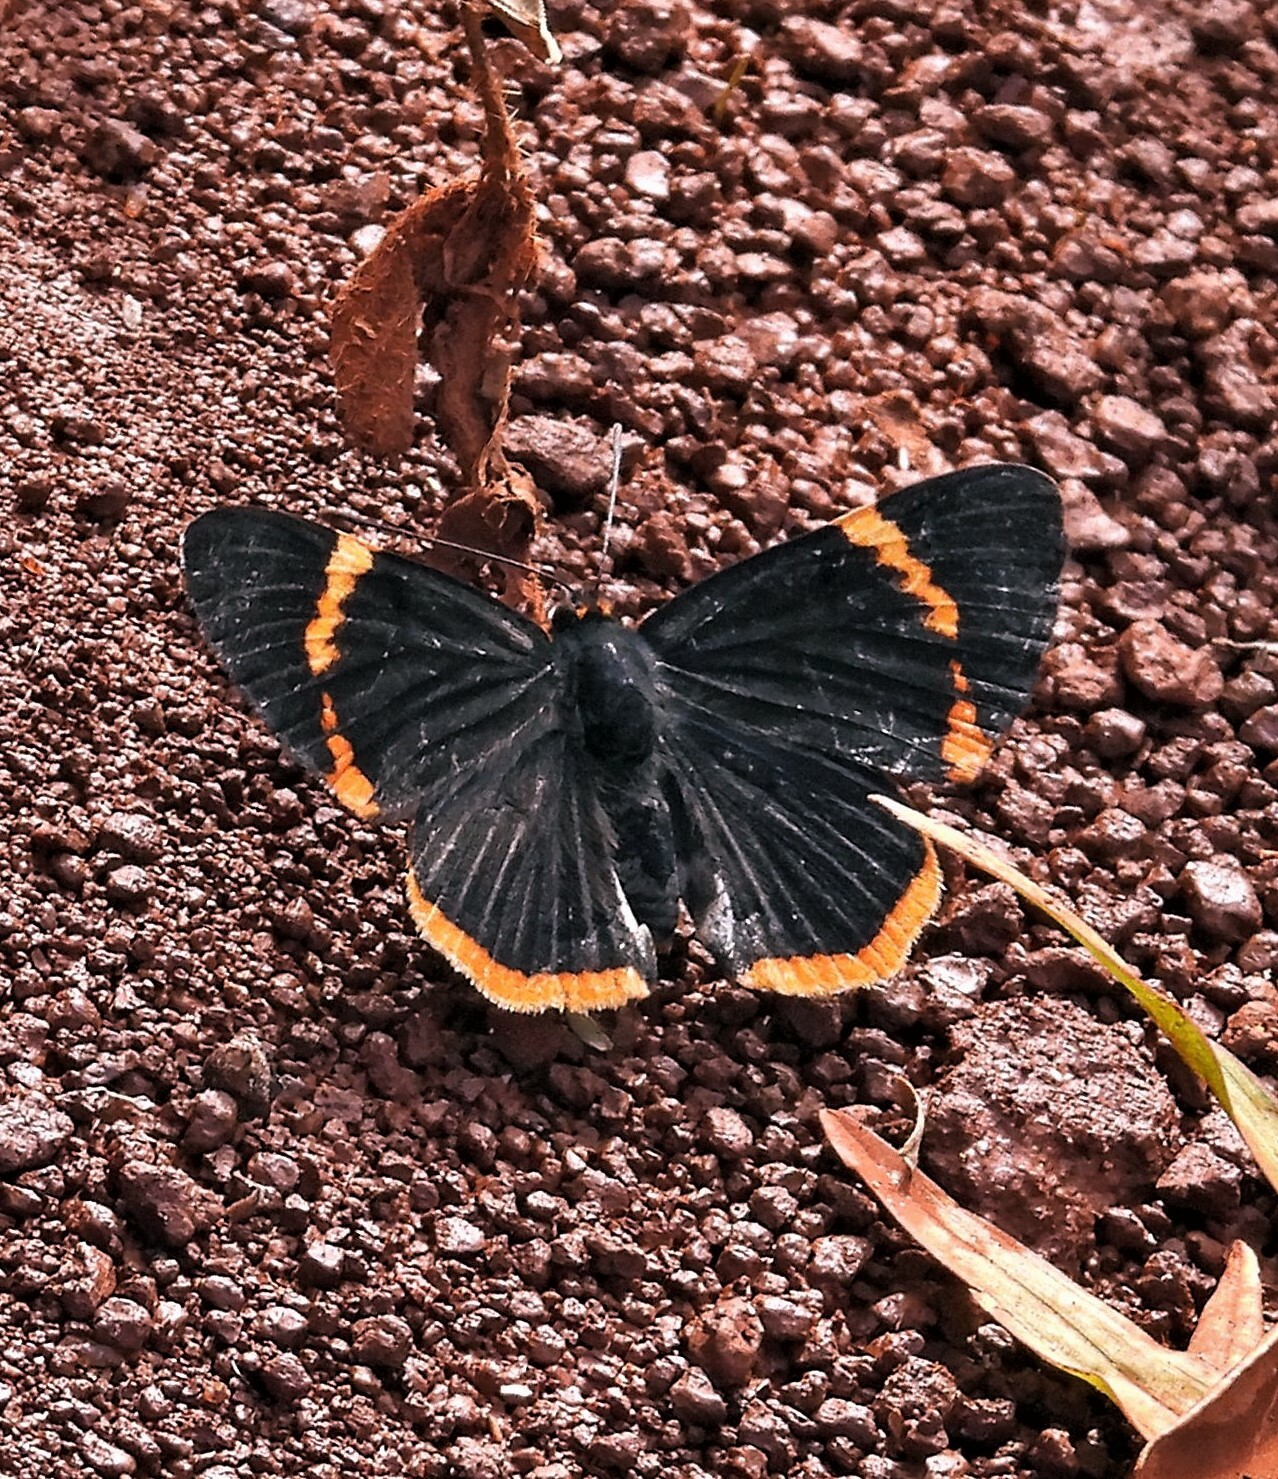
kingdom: Animalia
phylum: Arthropoda
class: Insecta
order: Lepidoptera
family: Riodinidae
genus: Riodina
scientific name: Riodina lycisca
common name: Lycisca metalmark
